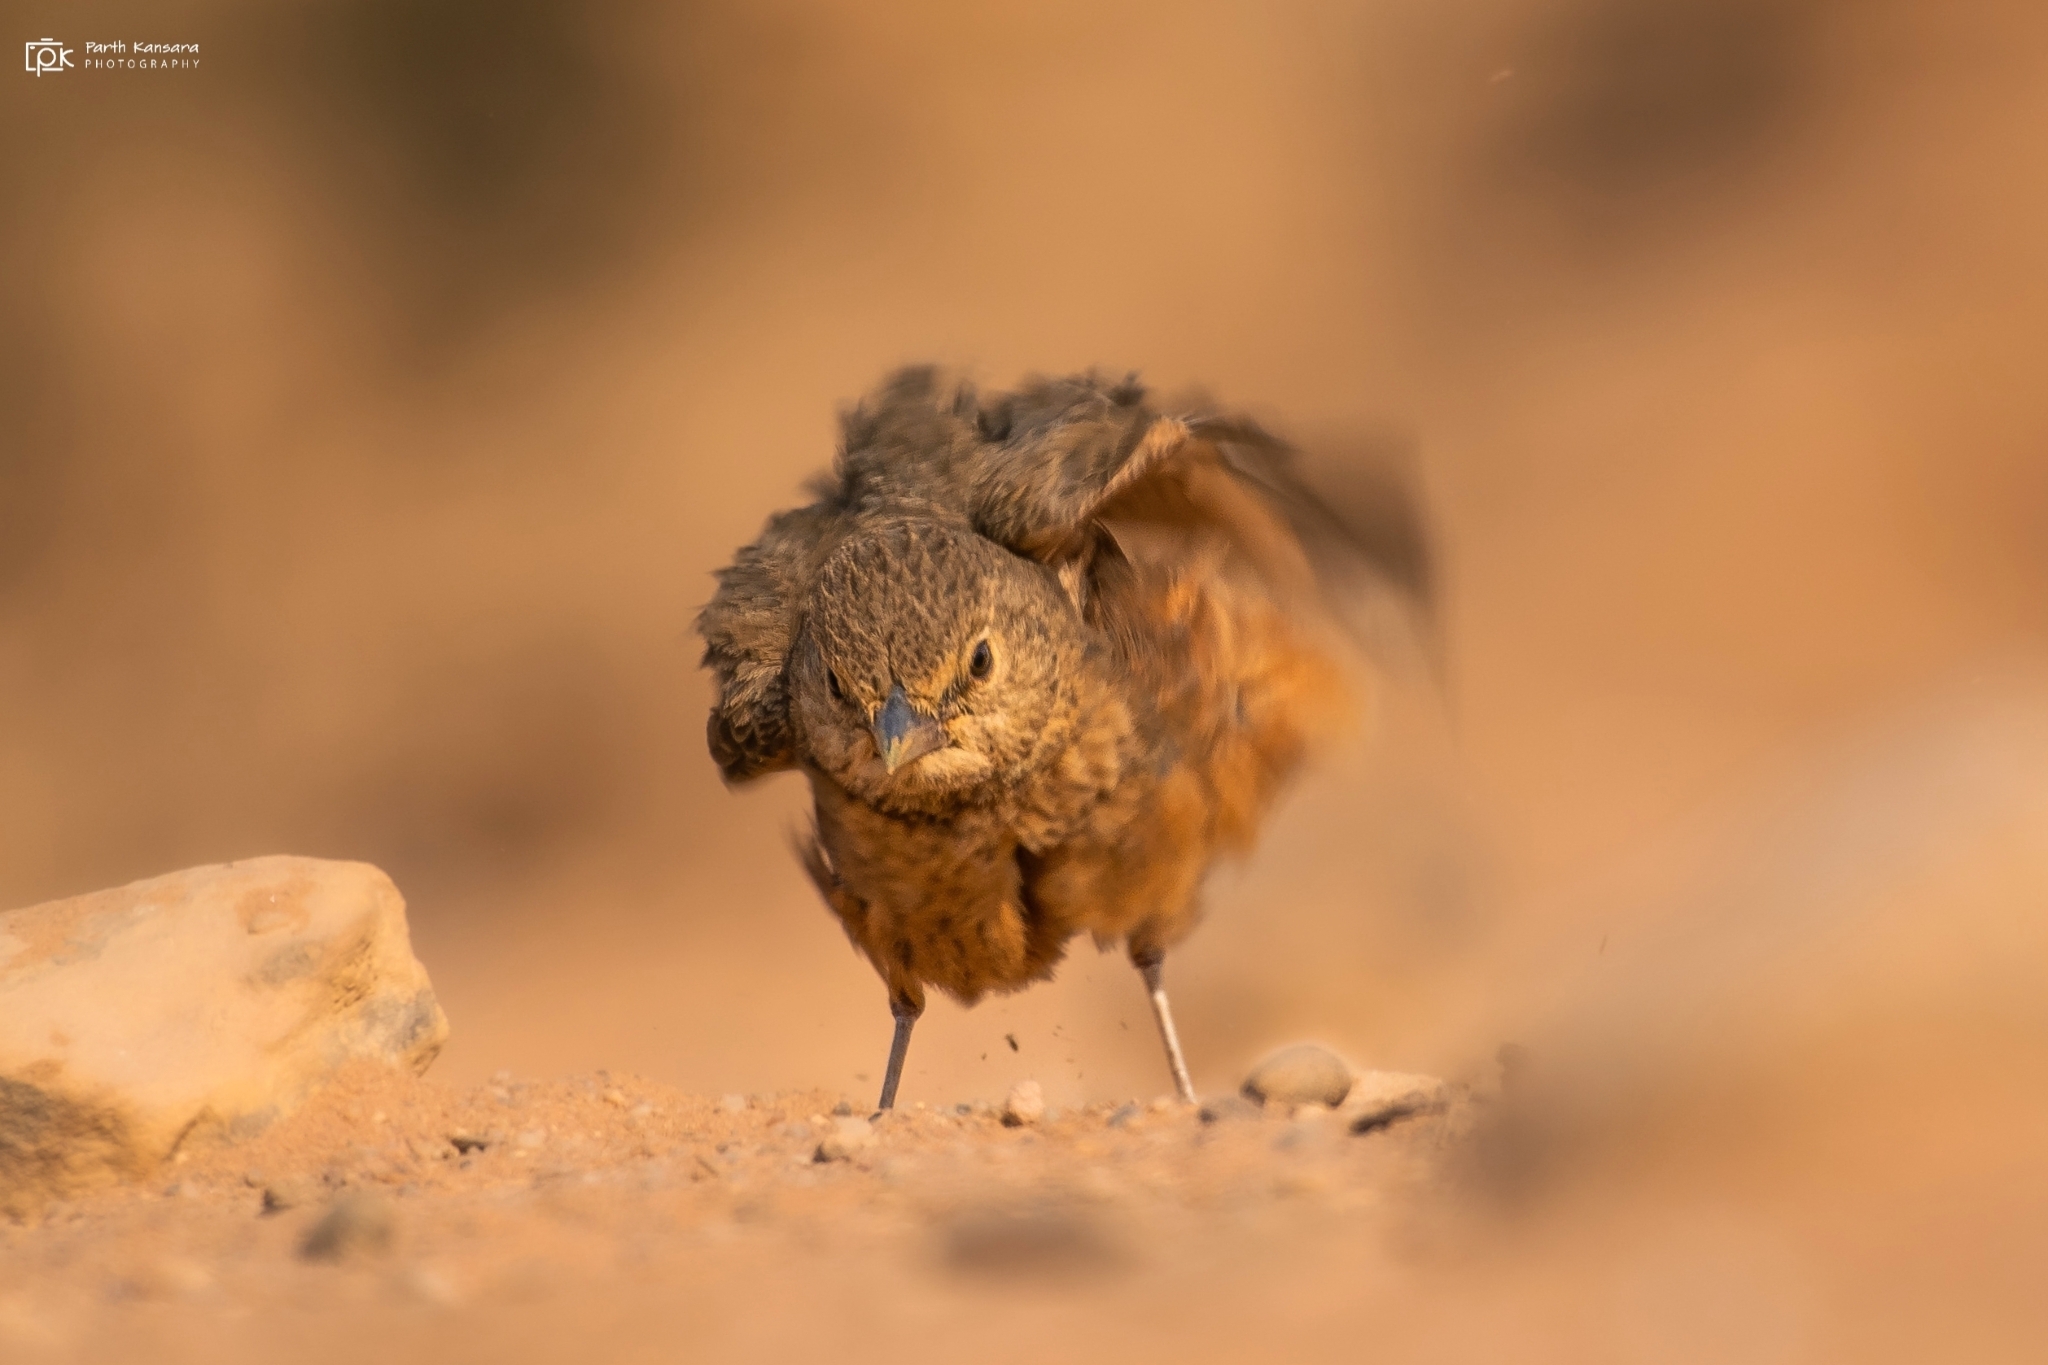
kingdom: Animalia
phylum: Chordata
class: Aves
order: Passeriformes
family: Alaudidae
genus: Ammomanes
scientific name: Ammomanes phoenicura
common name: Rufous-tailed lark
